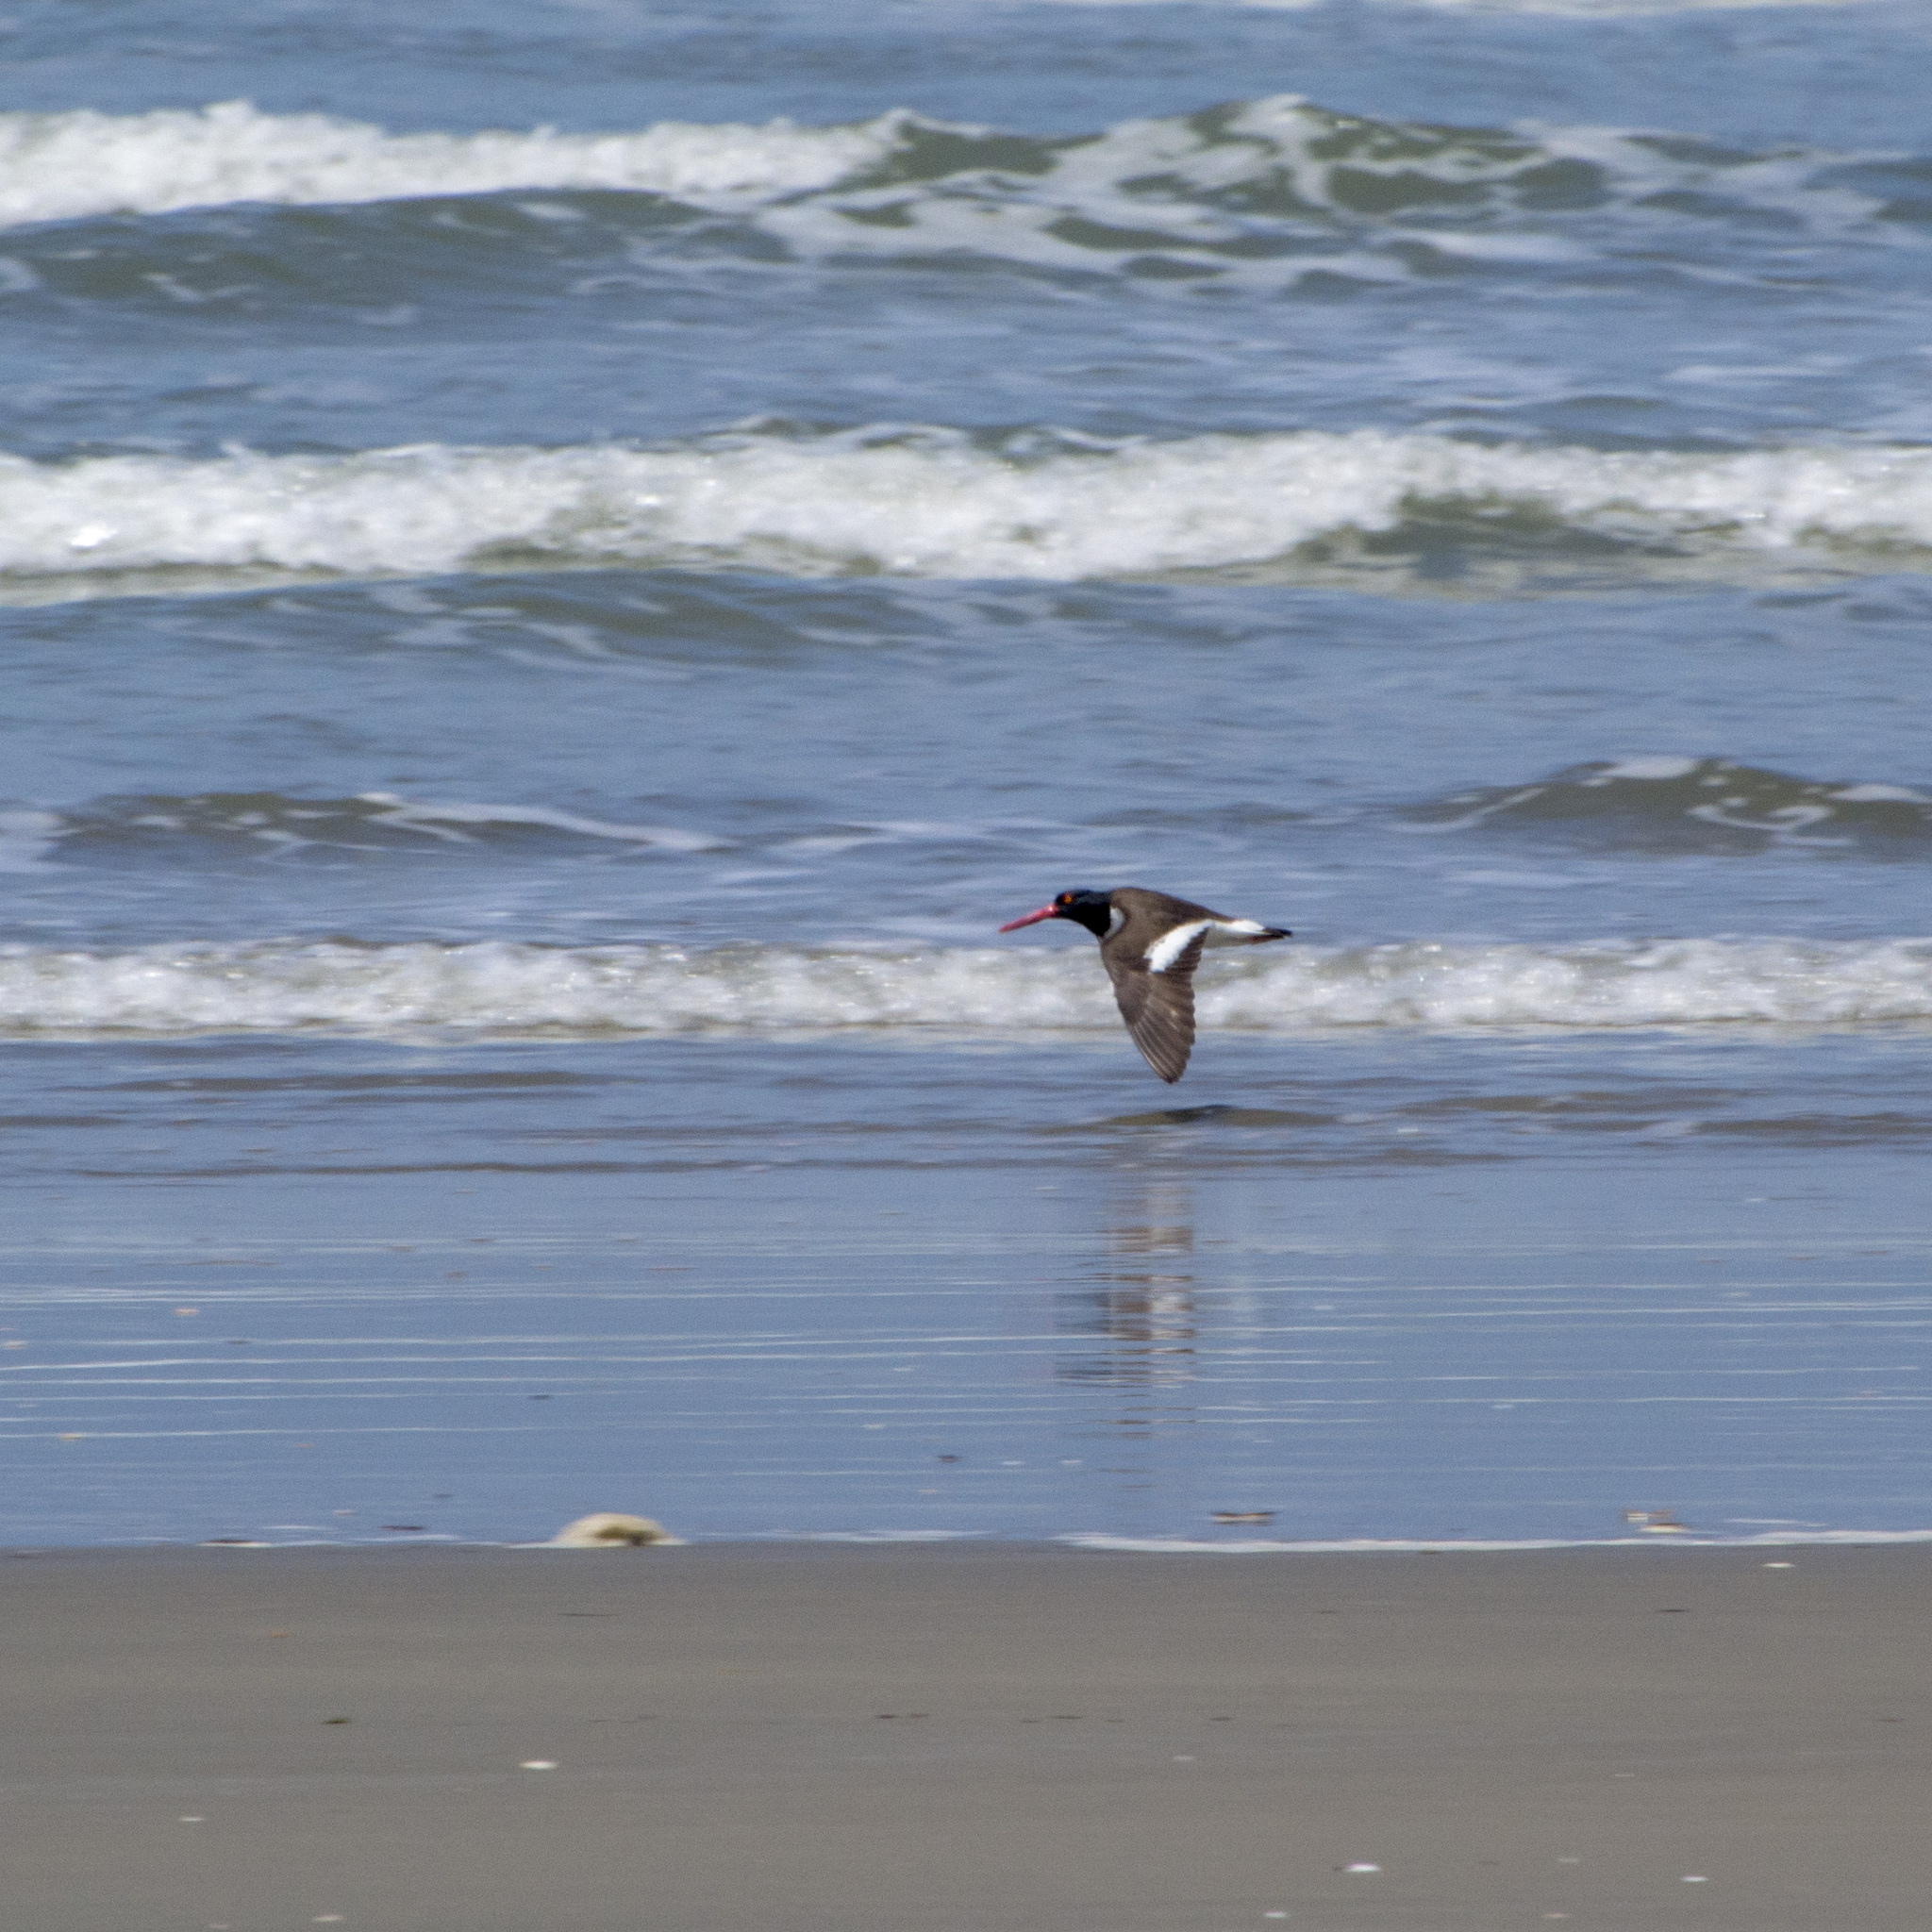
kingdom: Animalia
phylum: Chordata
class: Aves
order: Charadriiformes
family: Haematopodidae
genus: Haematopus
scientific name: Haematopus palliatus
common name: American oystercatcher
